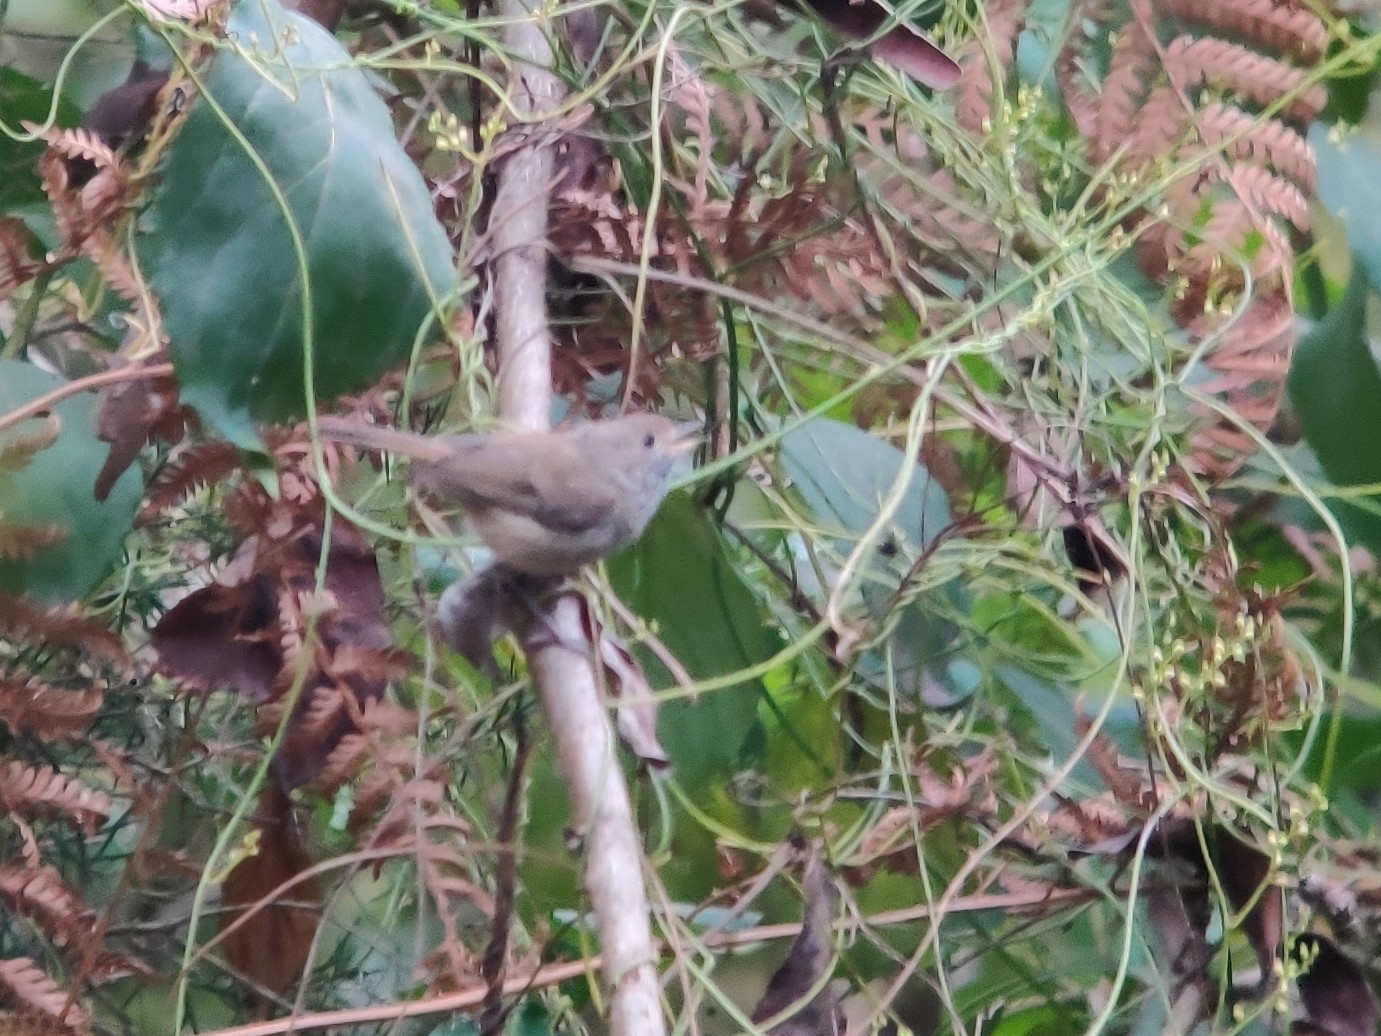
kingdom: Animalia
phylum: Chordata
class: Aves
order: Passeriformes
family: Acanthizidae
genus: Acanthiza
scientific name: Acanthiza pusilla
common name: Brown thornbill
